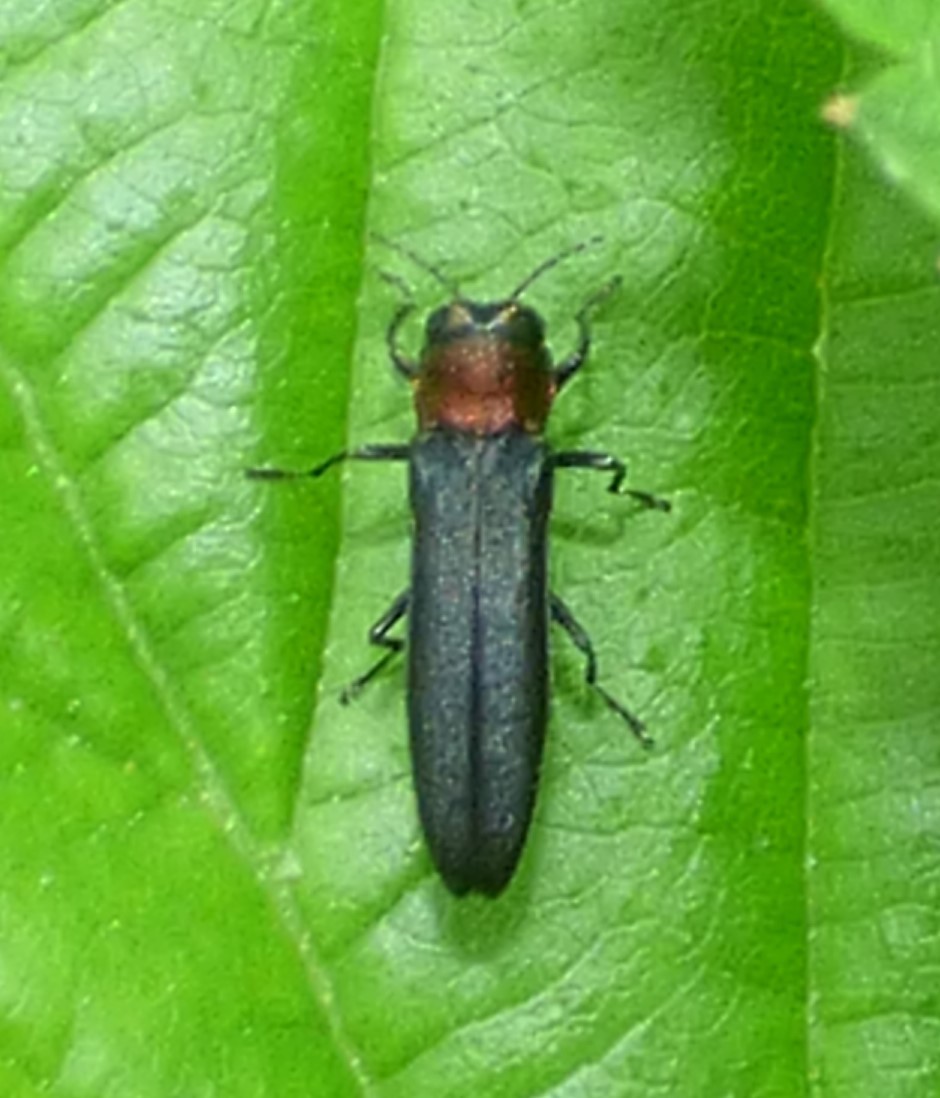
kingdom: Animalia
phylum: Arthropoda
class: Insecta
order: Coleoptera
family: Buprestidae
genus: Agrilus
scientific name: Agrilus ruficollis
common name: Red-necked cane borer beetle
